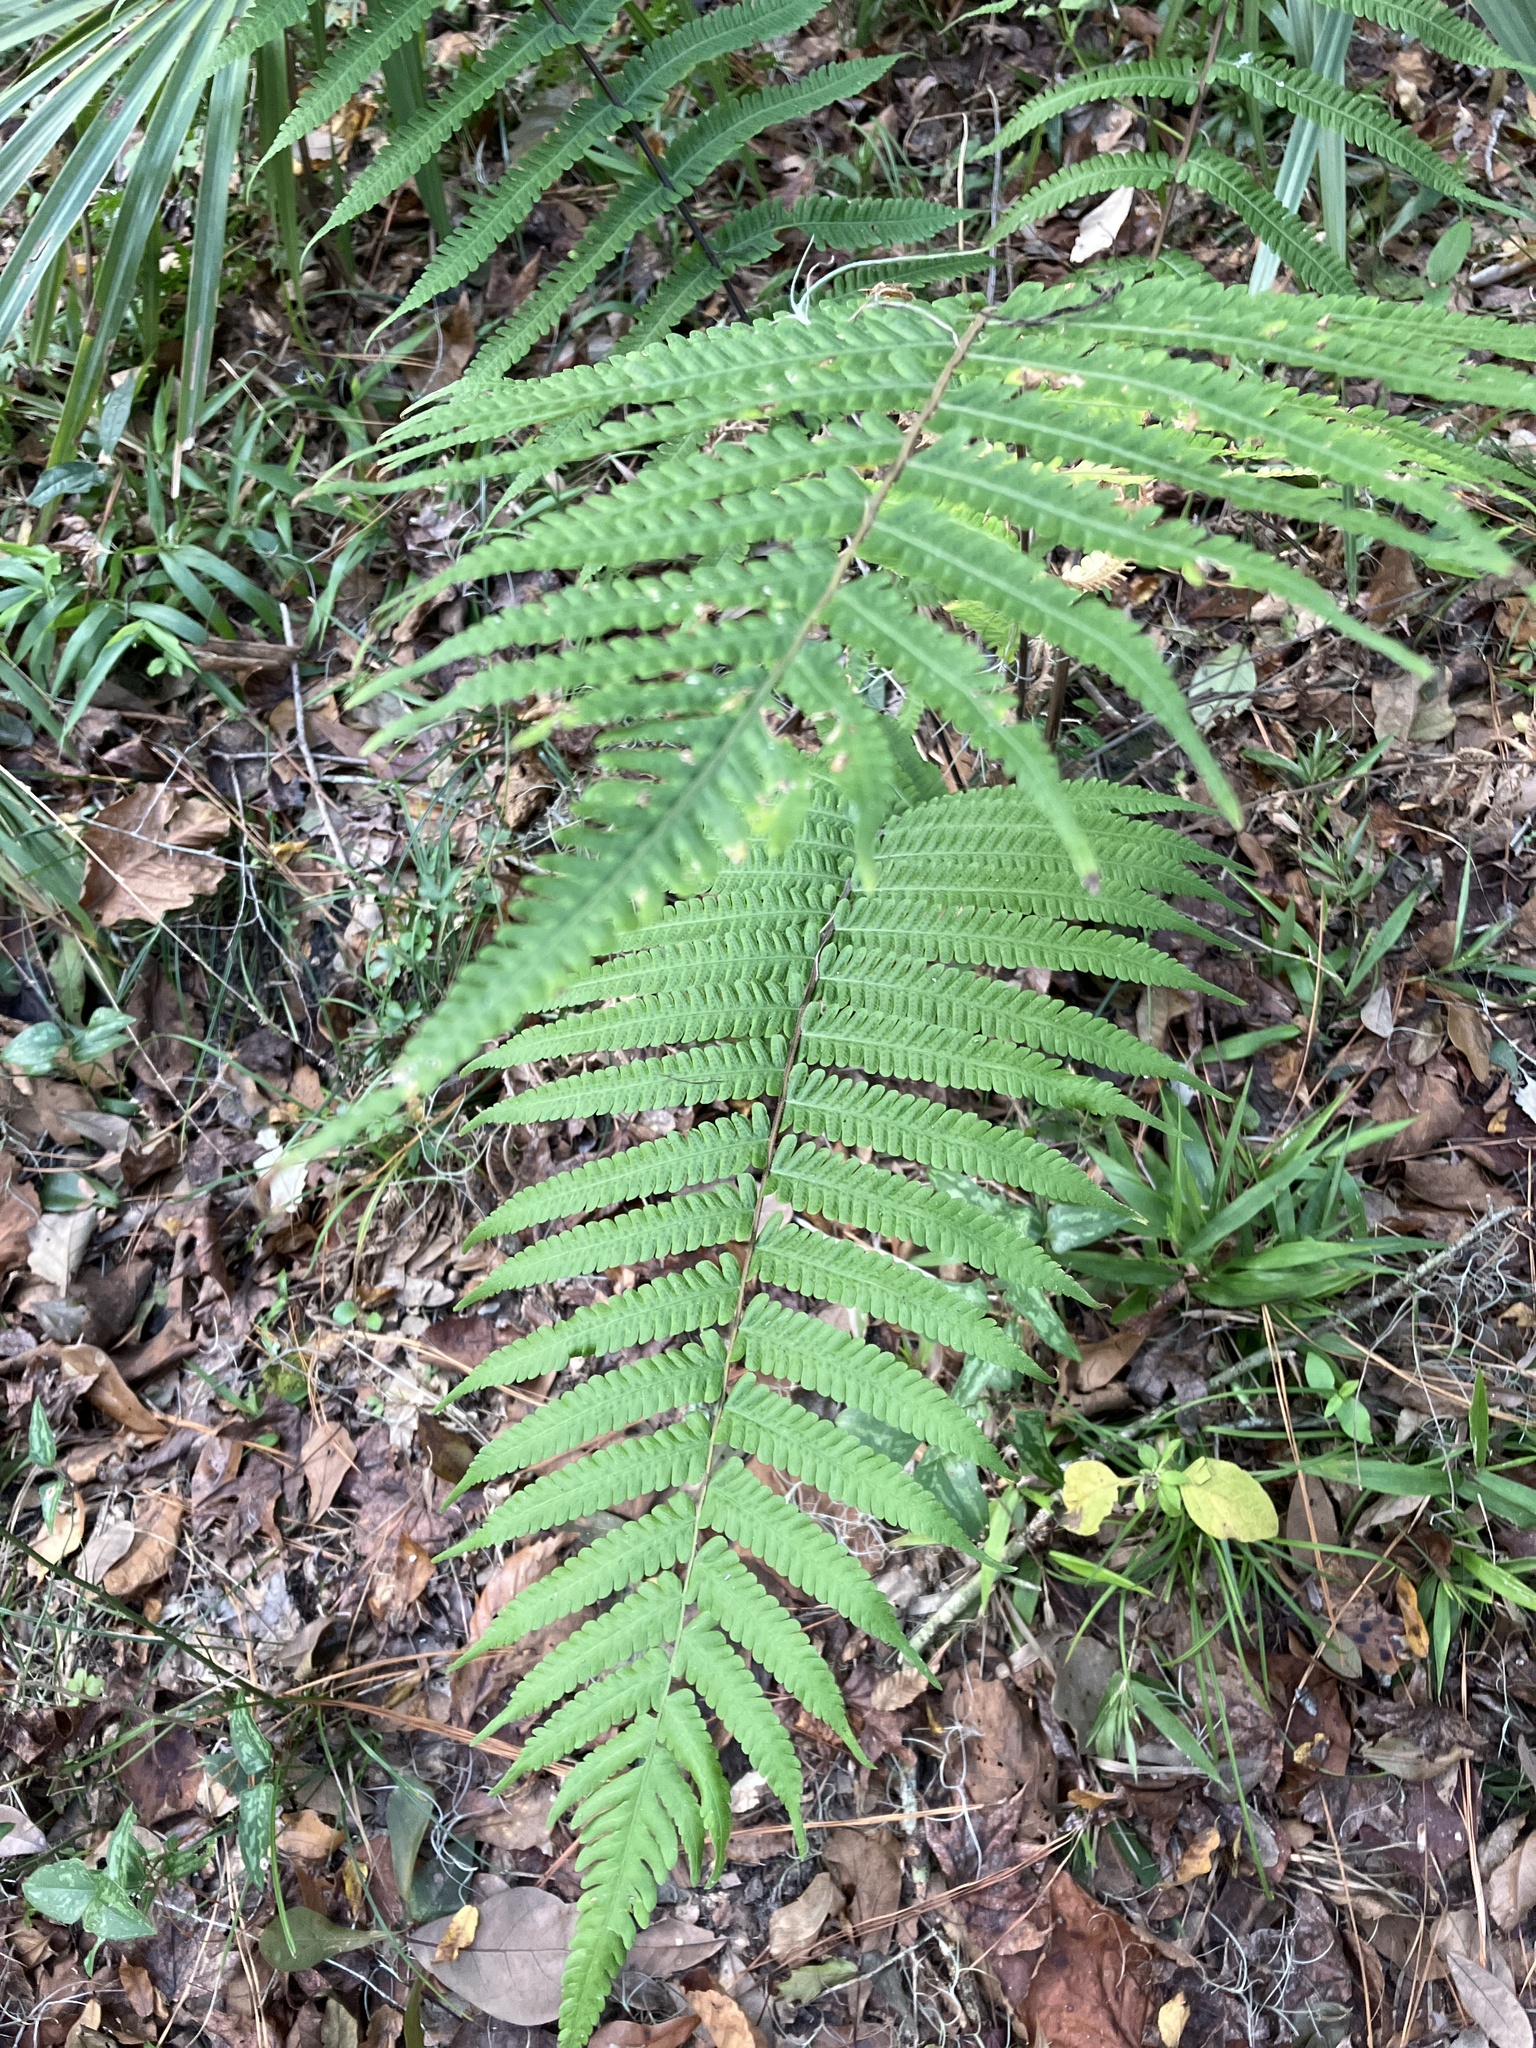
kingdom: Plantae
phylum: Tracheophyta
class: Polypodiopsida
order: Polypodiales
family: Thelypteridaceae
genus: Christella
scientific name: Christella dentata
